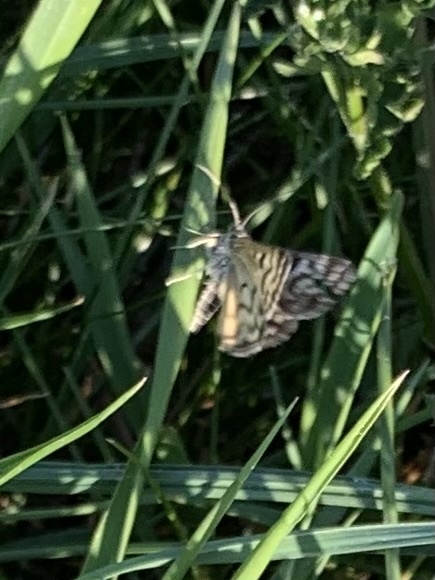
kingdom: Animalia
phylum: Arthropoda
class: Insecta
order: Lepidoptera
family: Erebidae
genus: Callistege
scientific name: Callistege mi
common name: Mother shipton
